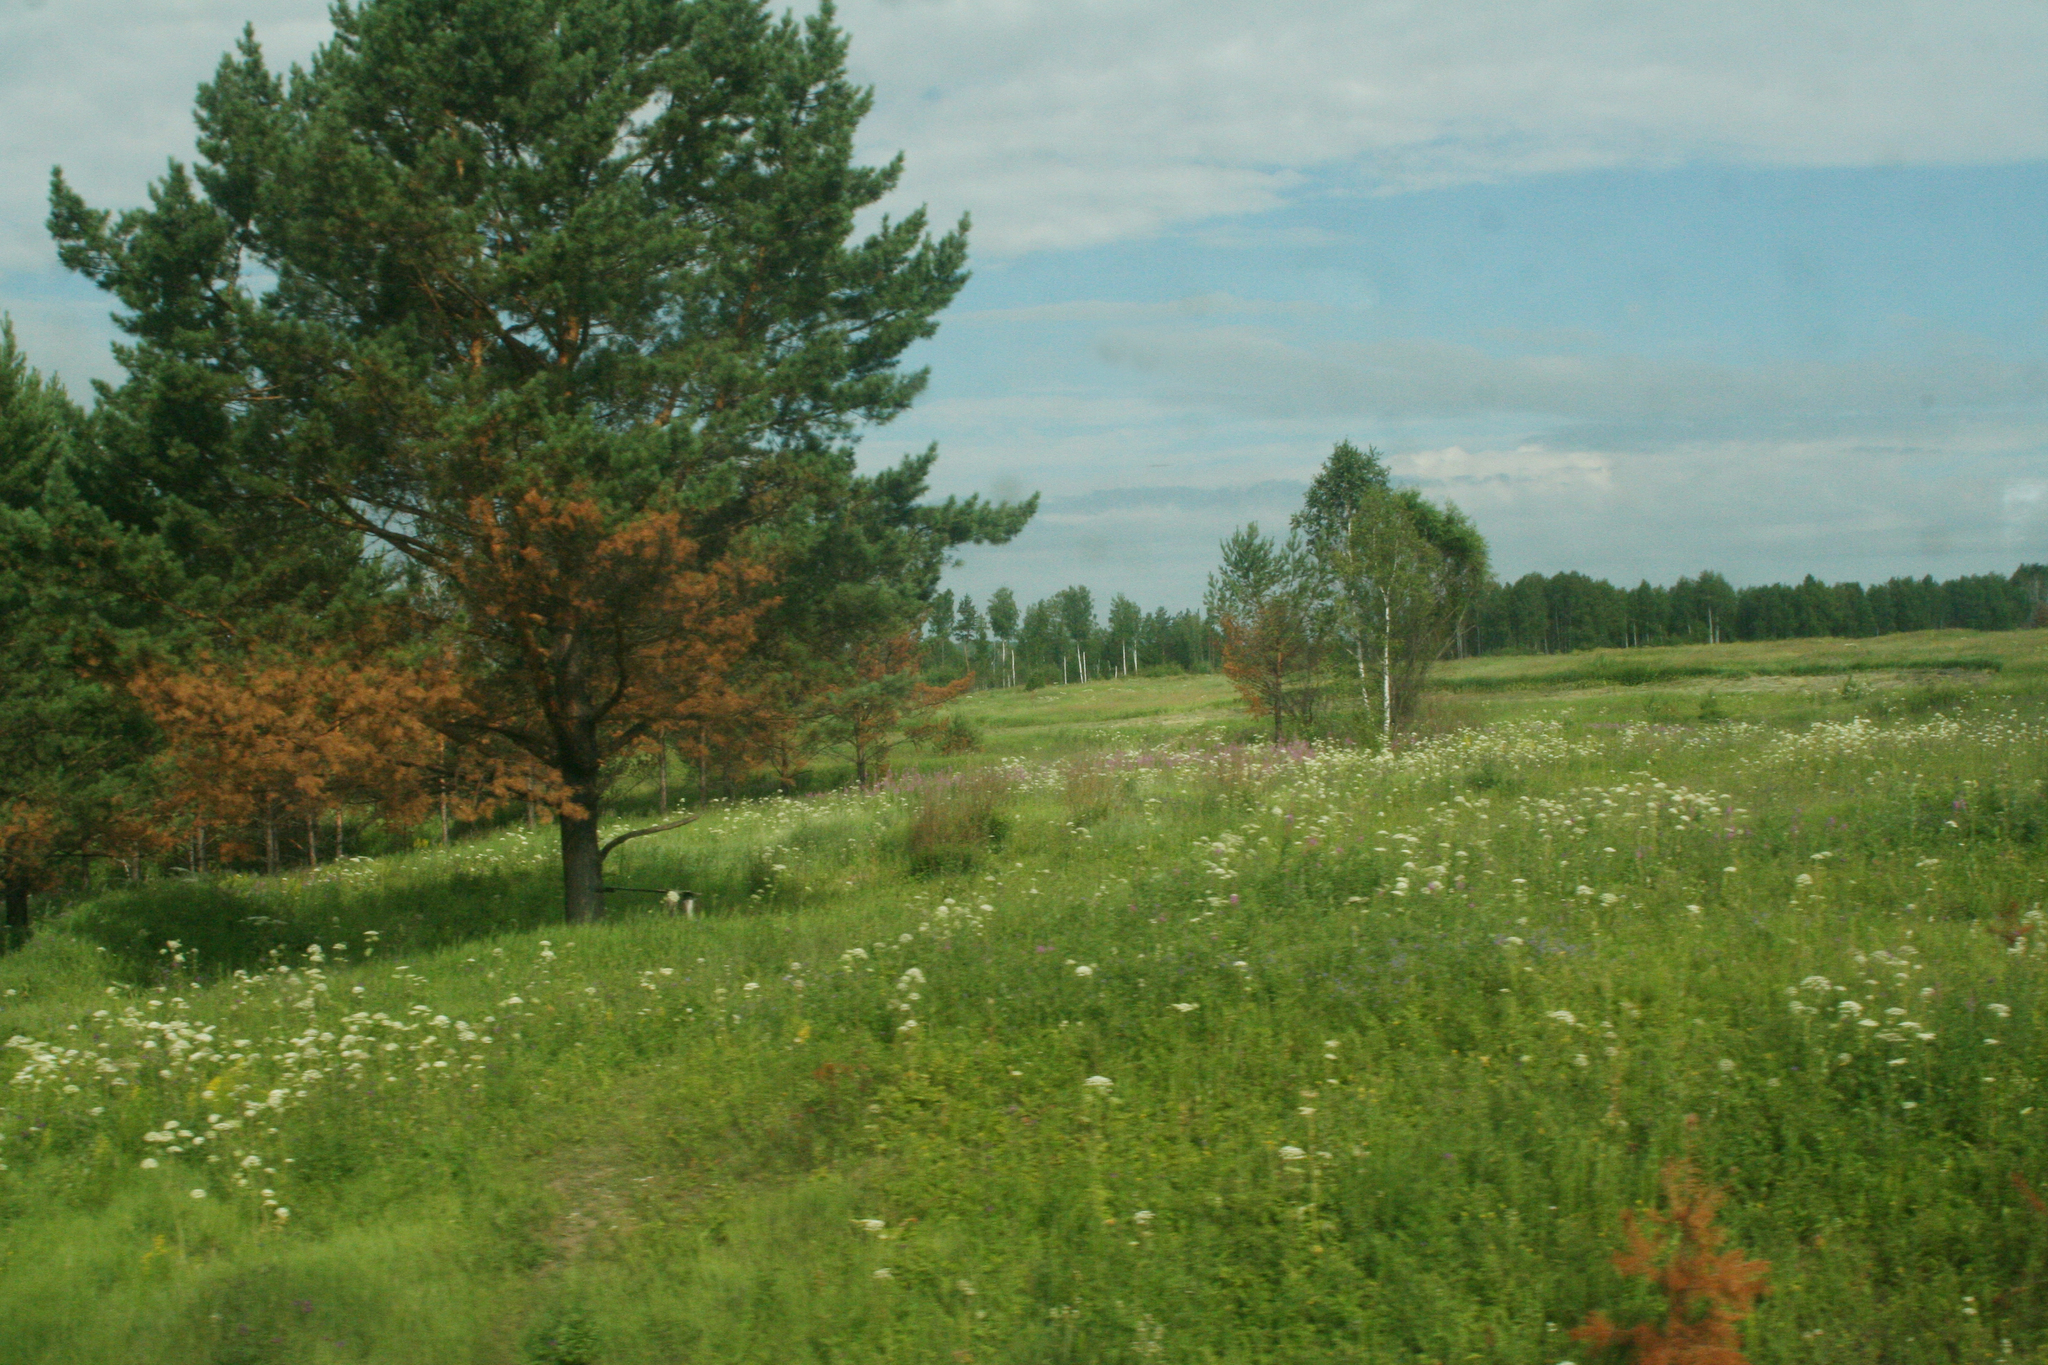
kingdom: Plantae
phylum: Tracheophyta
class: Pinopsida
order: Pinales
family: Pinaceae
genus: Pinus
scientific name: Pinus sylvestris
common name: Scots pine
